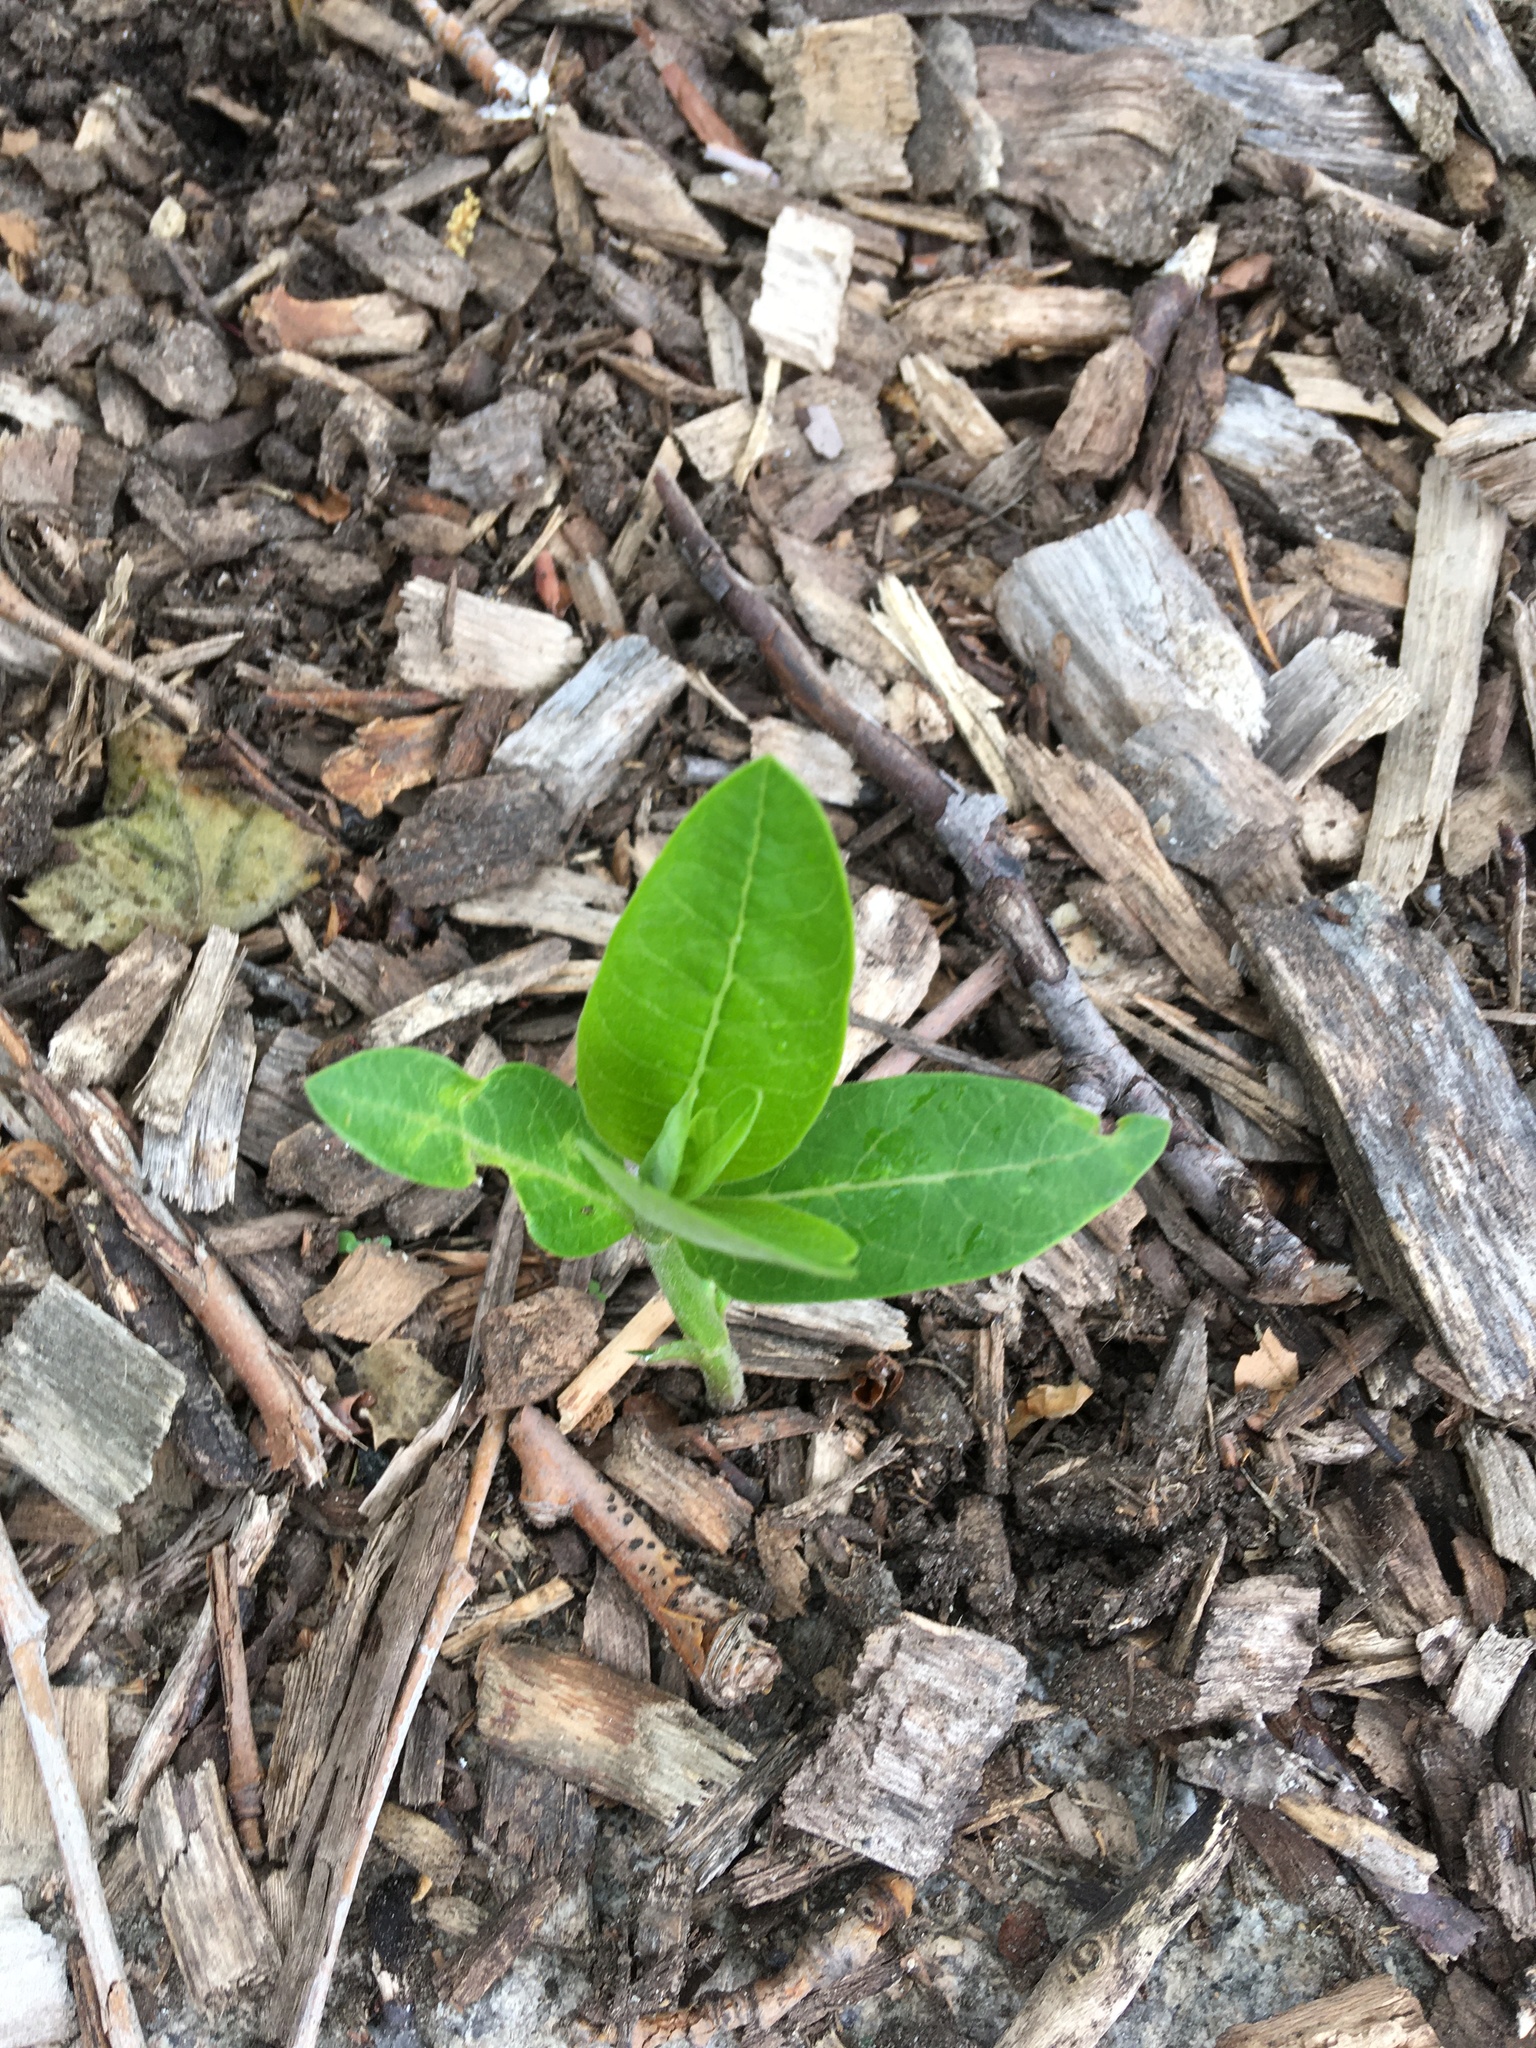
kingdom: Plantae
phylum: Tracheophyta
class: Magnoliopsida
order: Gentianales
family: Apocynaceae
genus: Asclepias
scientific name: Asclepias syriaca
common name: Common milkweed
